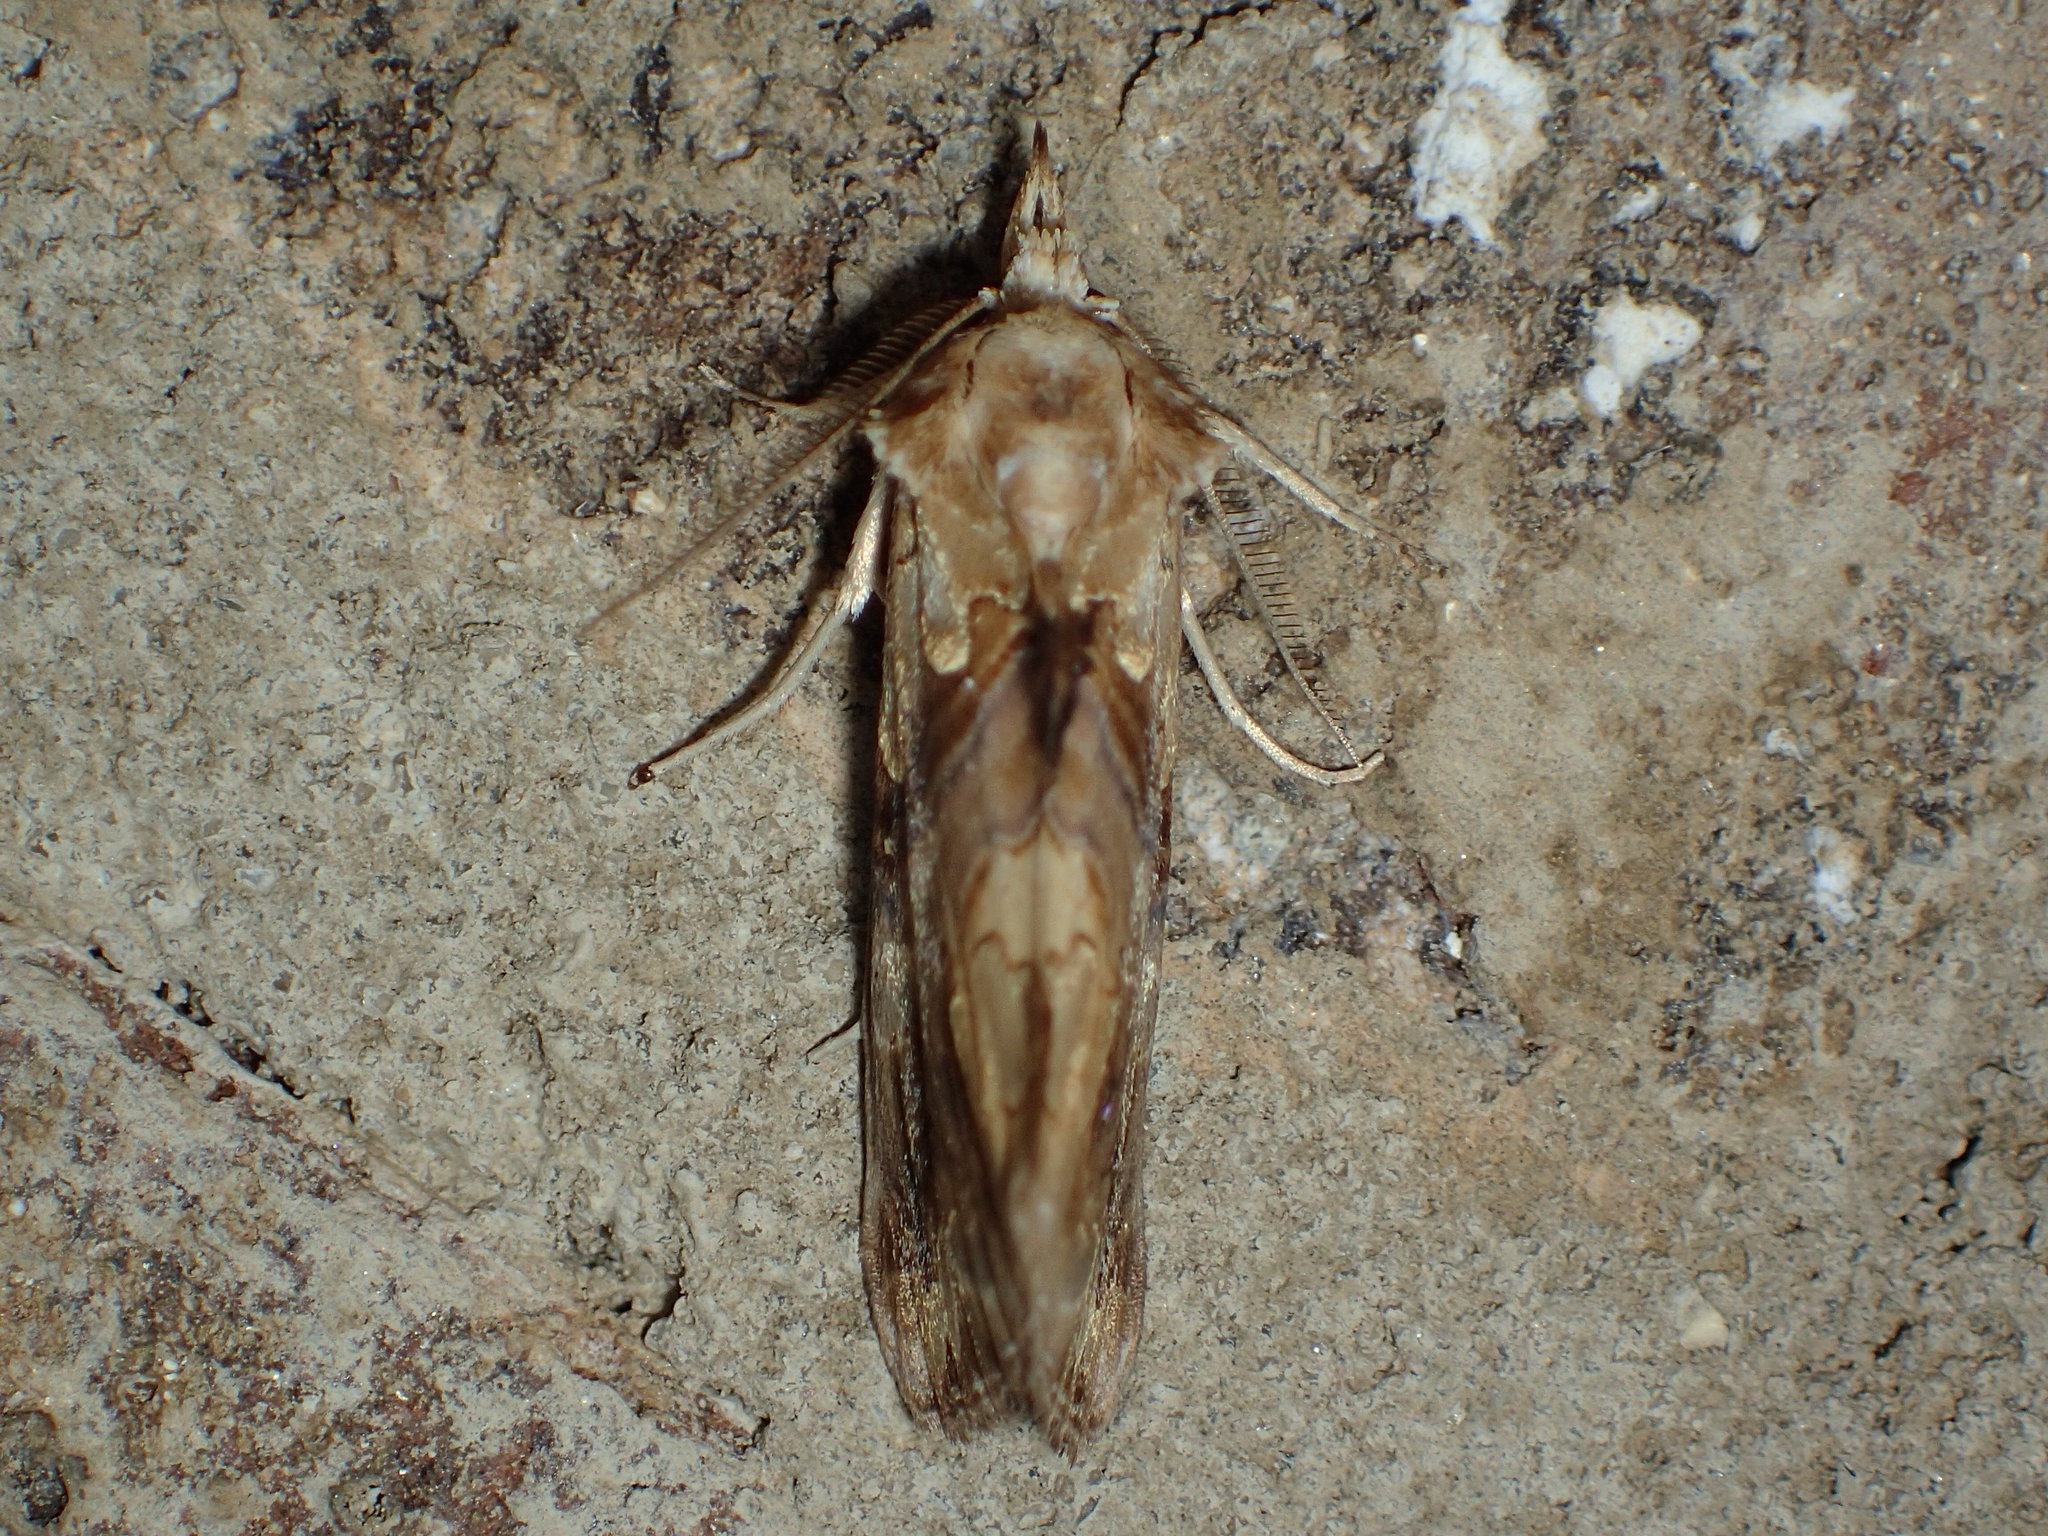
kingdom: Animalia
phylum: Arthropoda
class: Insecta
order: Lepidoptera
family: Erebidae
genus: Plusiodonta
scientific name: Plusiodonta compressipalpis
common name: Moonseed moth
